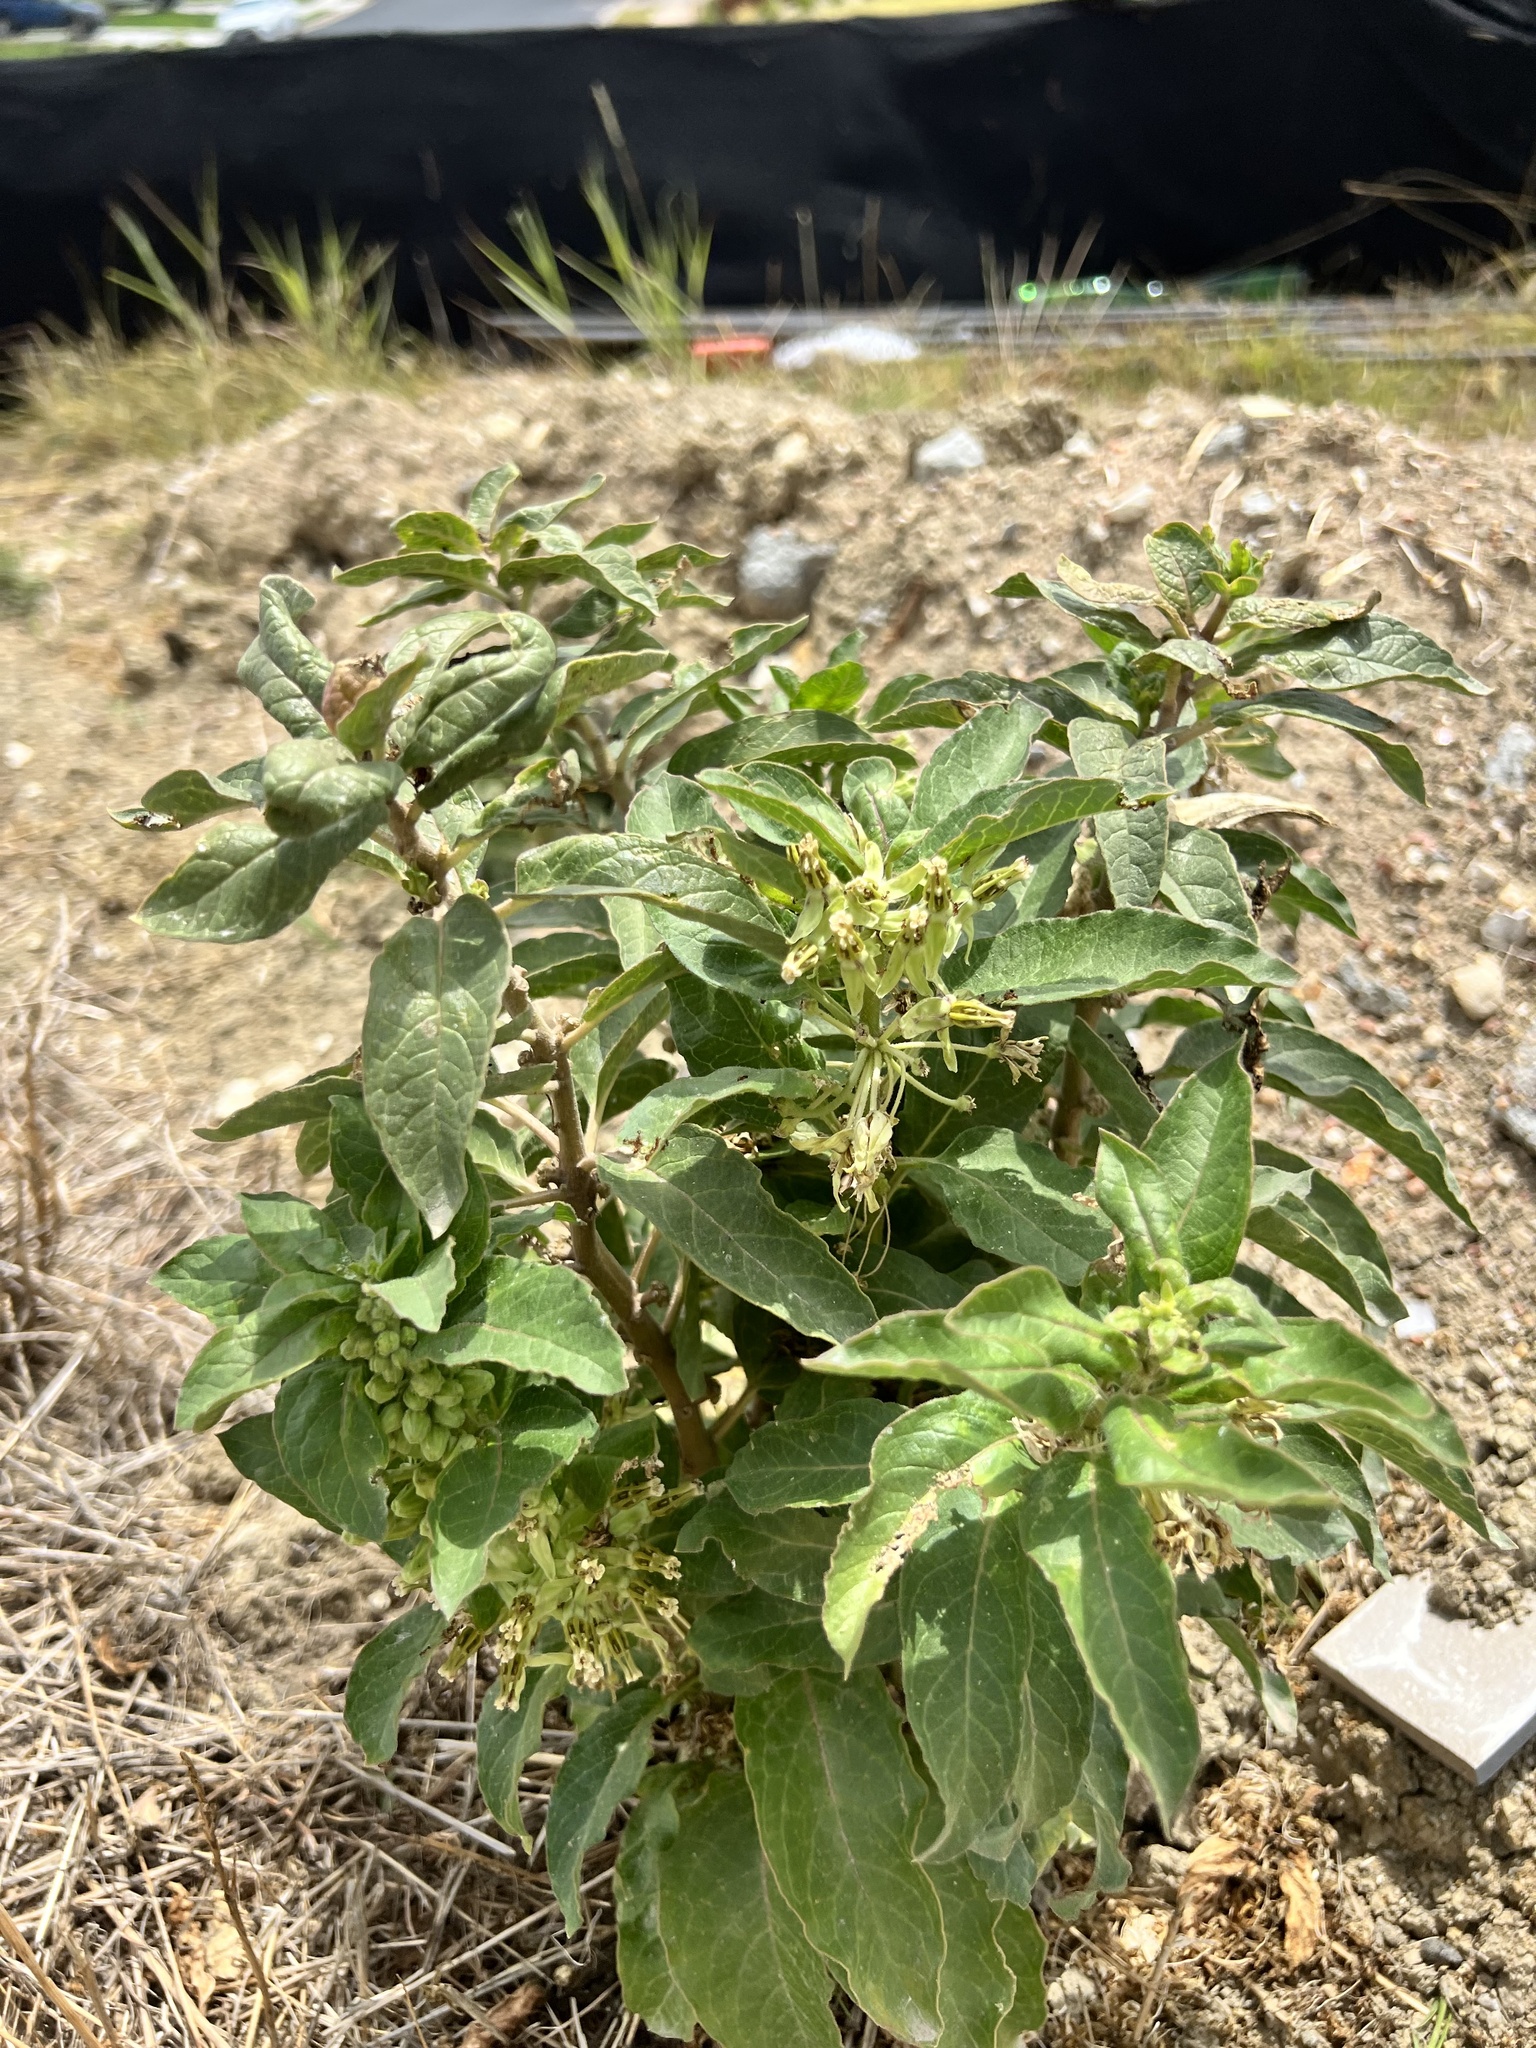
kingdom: Plantae
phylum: Tracheophyta
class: Magnoliopsida
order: Gentianales
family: Apocynaceae
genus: Asclepias
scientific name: Asclepias oenotheroides
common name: Zizotes milkweed
